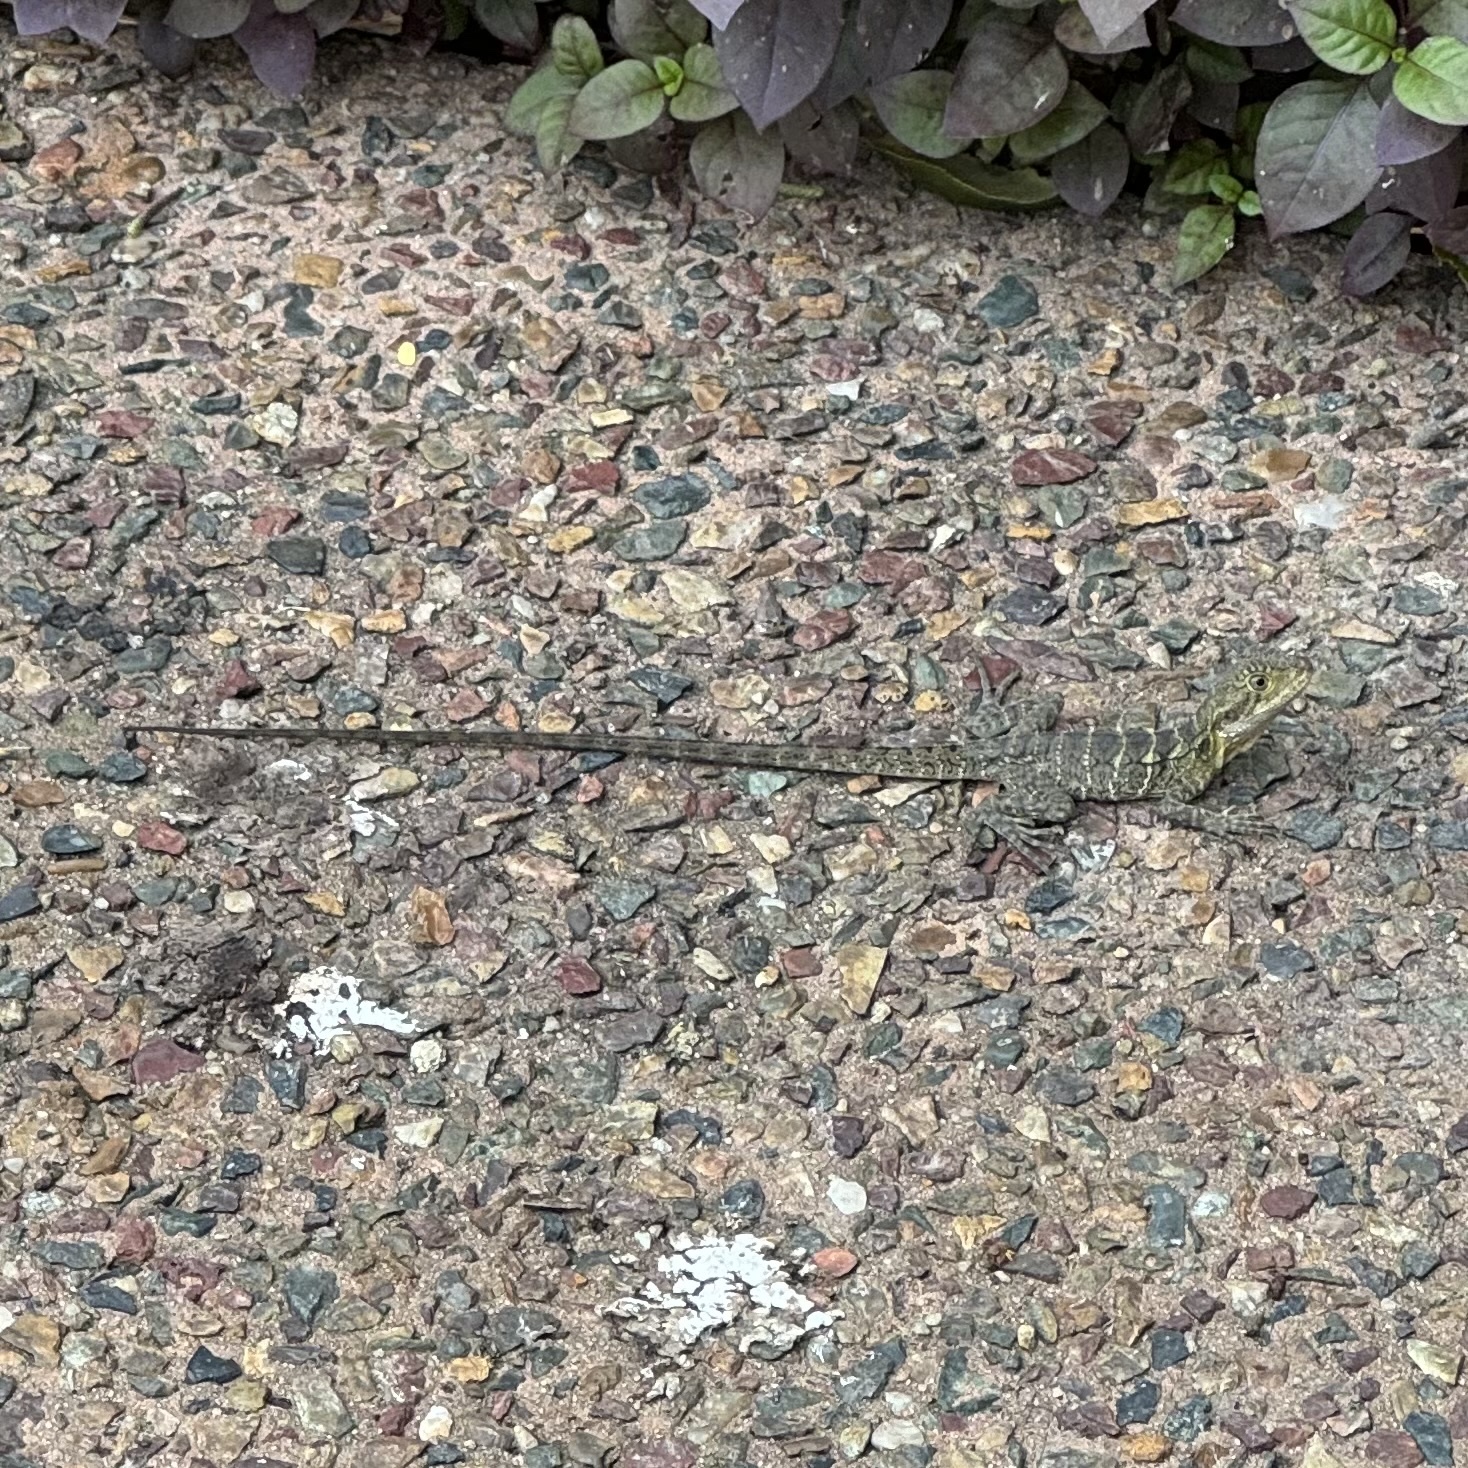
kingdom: Animalia
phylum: Chordata
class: Squamata
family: Agamidae
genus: Intellagama
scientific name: Intellagama lesueurii
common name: Eastern water dragon
